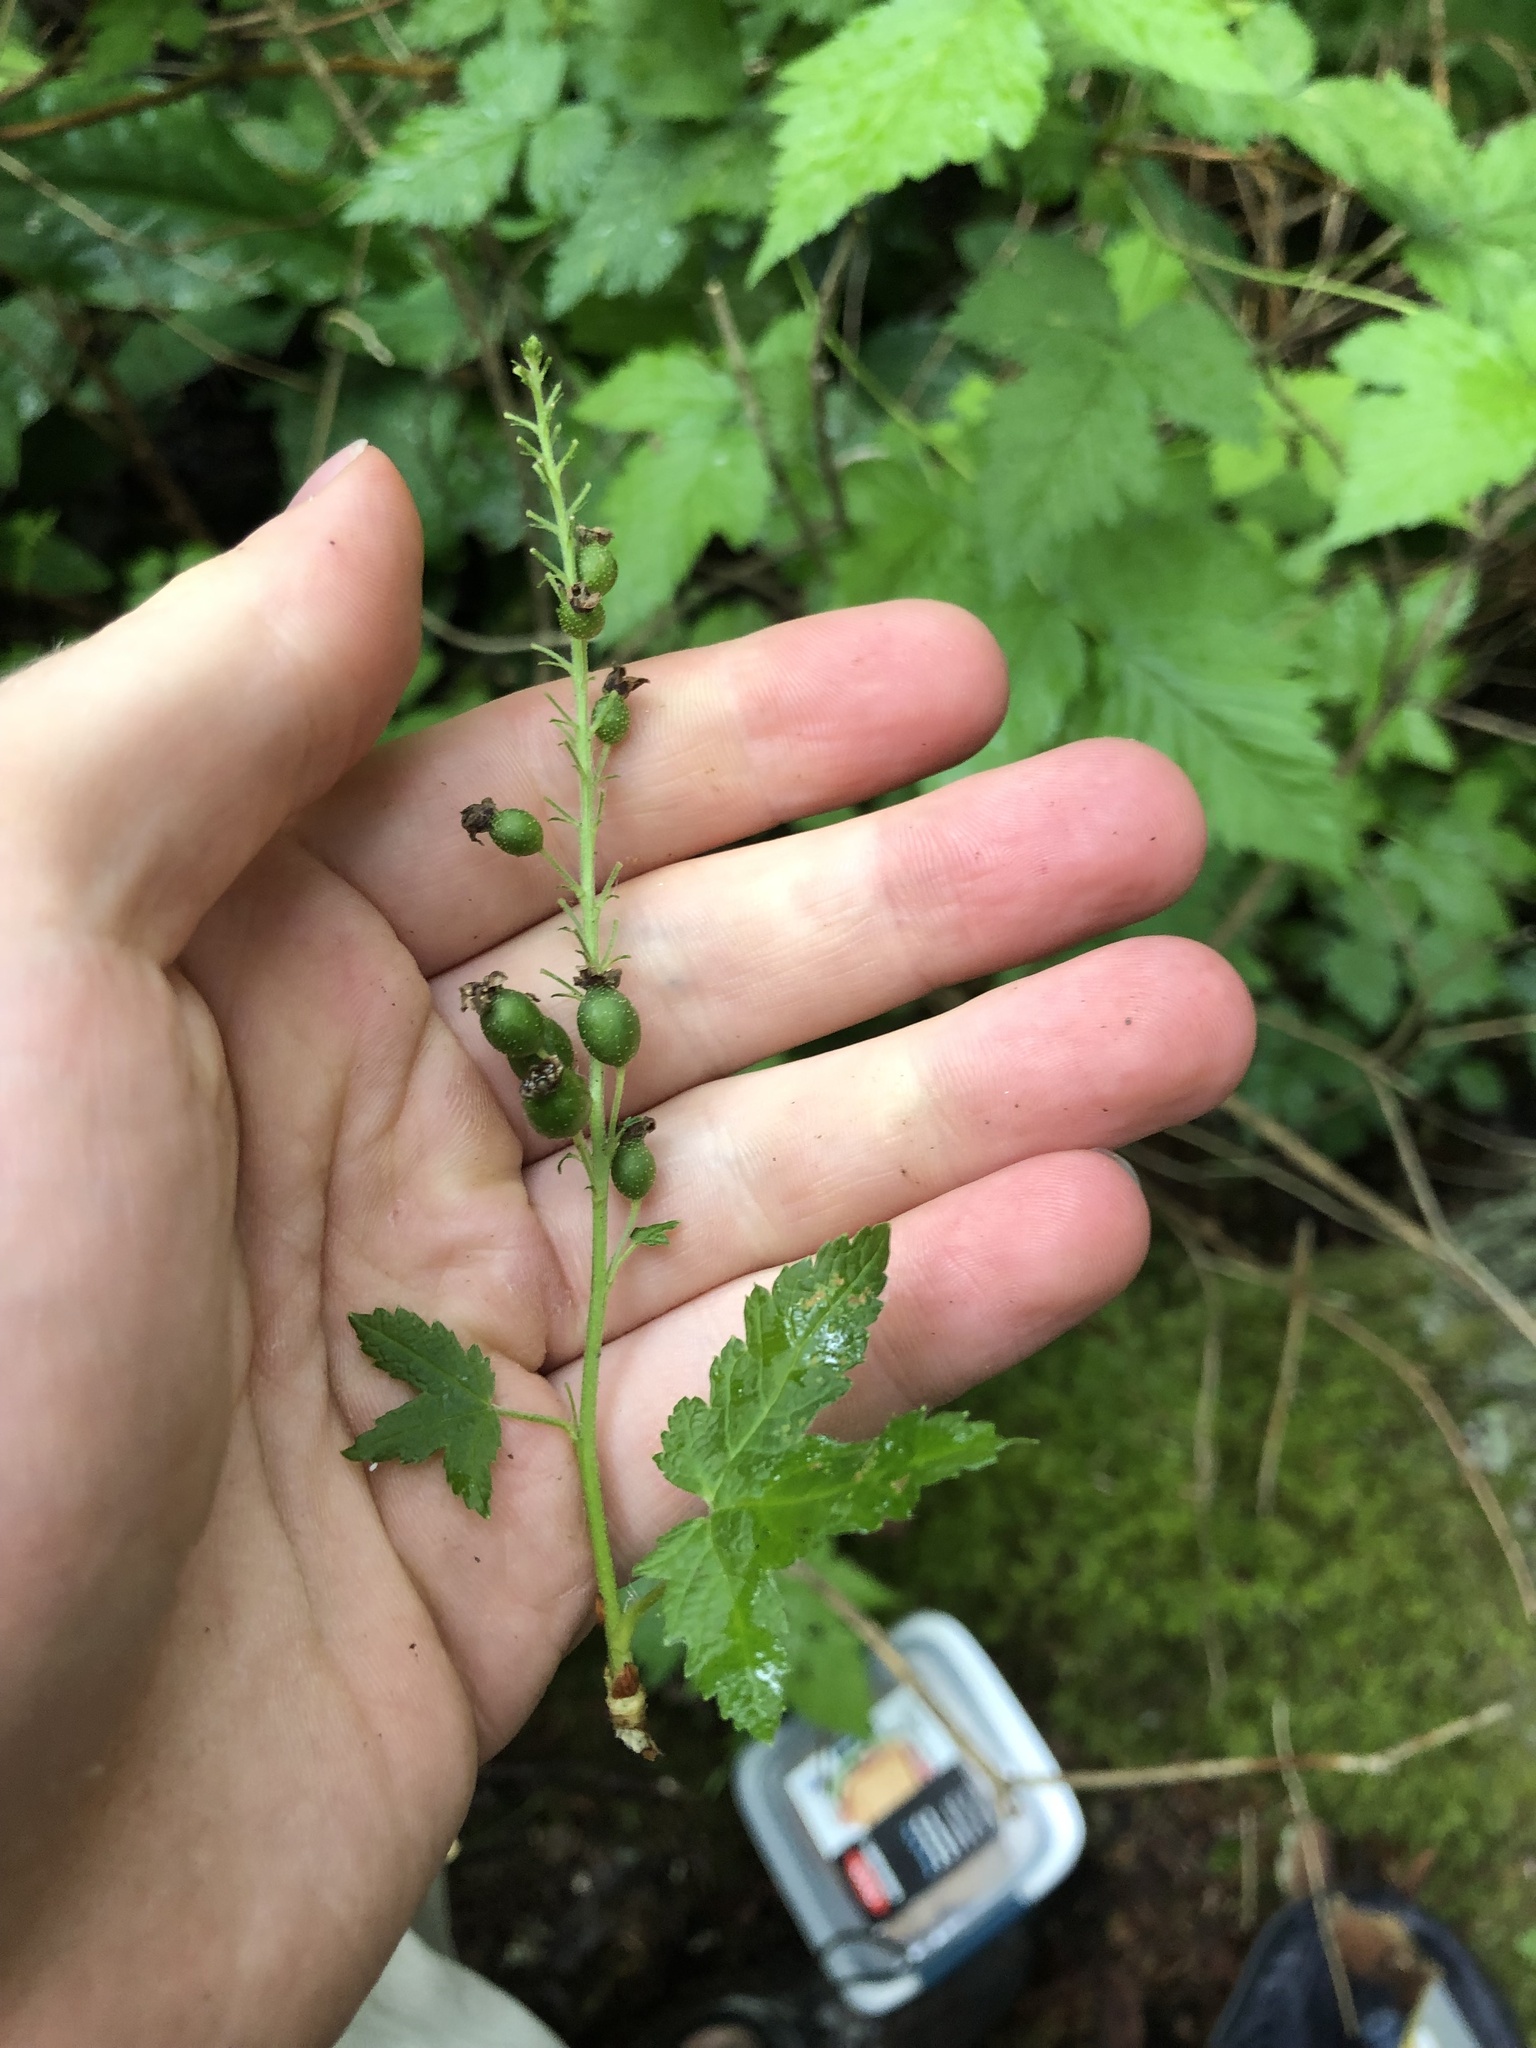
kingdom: Plantae
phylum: Tracheophyta
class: Magnoliopsida
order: Saxifragales
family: Grossulariaceae
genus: Ribes
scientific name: Ribes bracteosum
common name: California black currant
